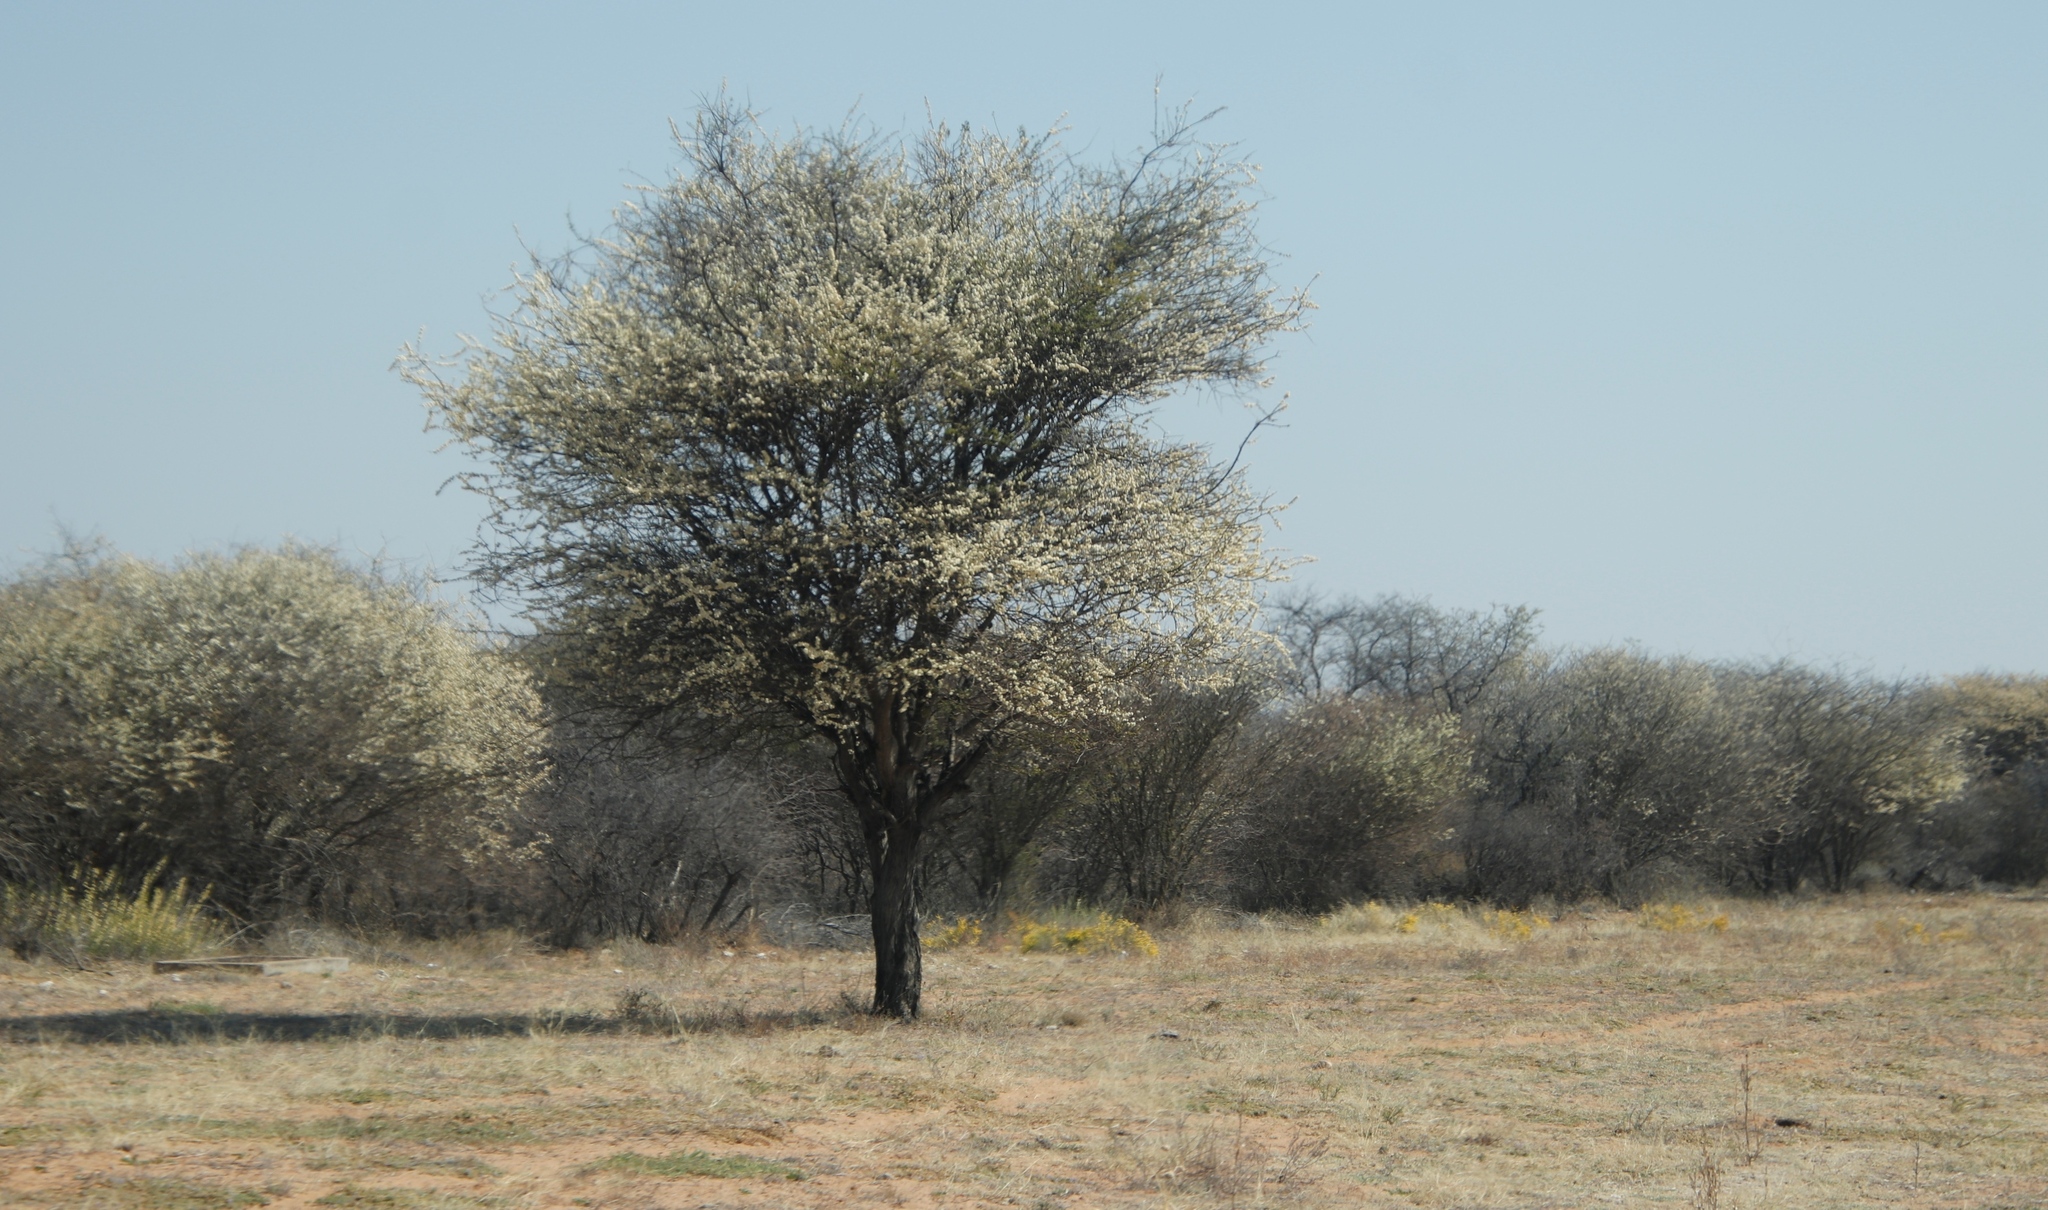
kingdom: Plantae
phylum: Tracheophyta
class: Magnoliopsida
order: Malvales
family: Thymelaeaceae
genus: Gnidia
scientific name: Gnidia polycephala
